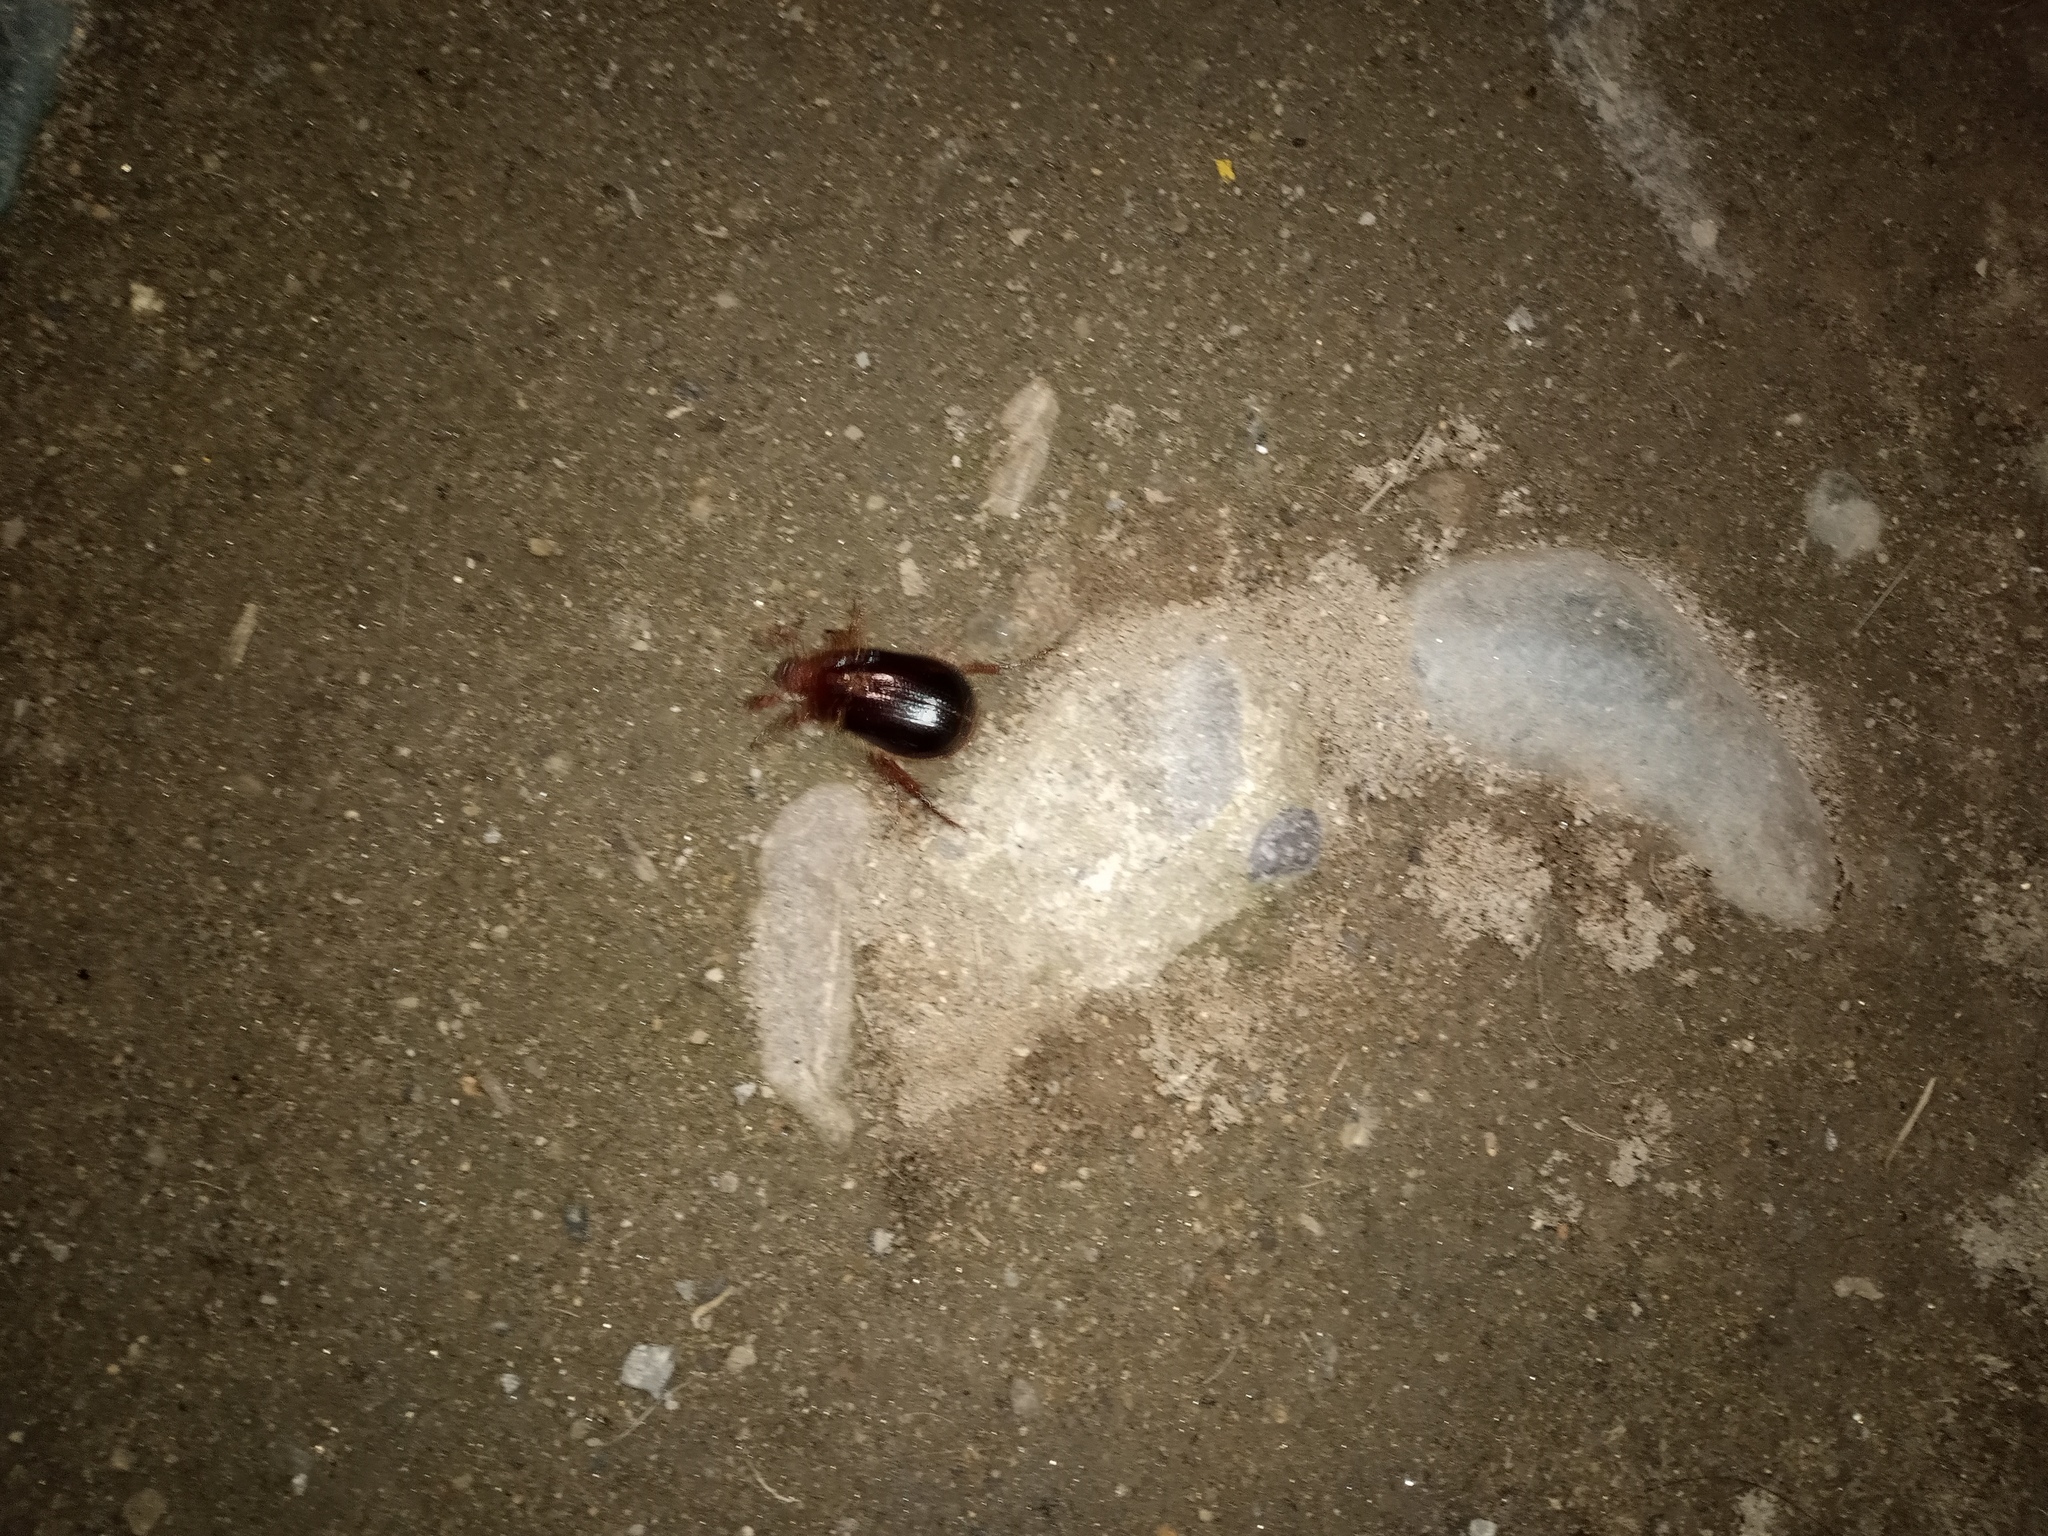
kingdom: Animalia
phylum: Arthropoda
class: Insecta
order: Coleoptera
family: Scarabaeidae
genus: Aulacopalpus
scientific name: Aulacopalpus ciliatus
